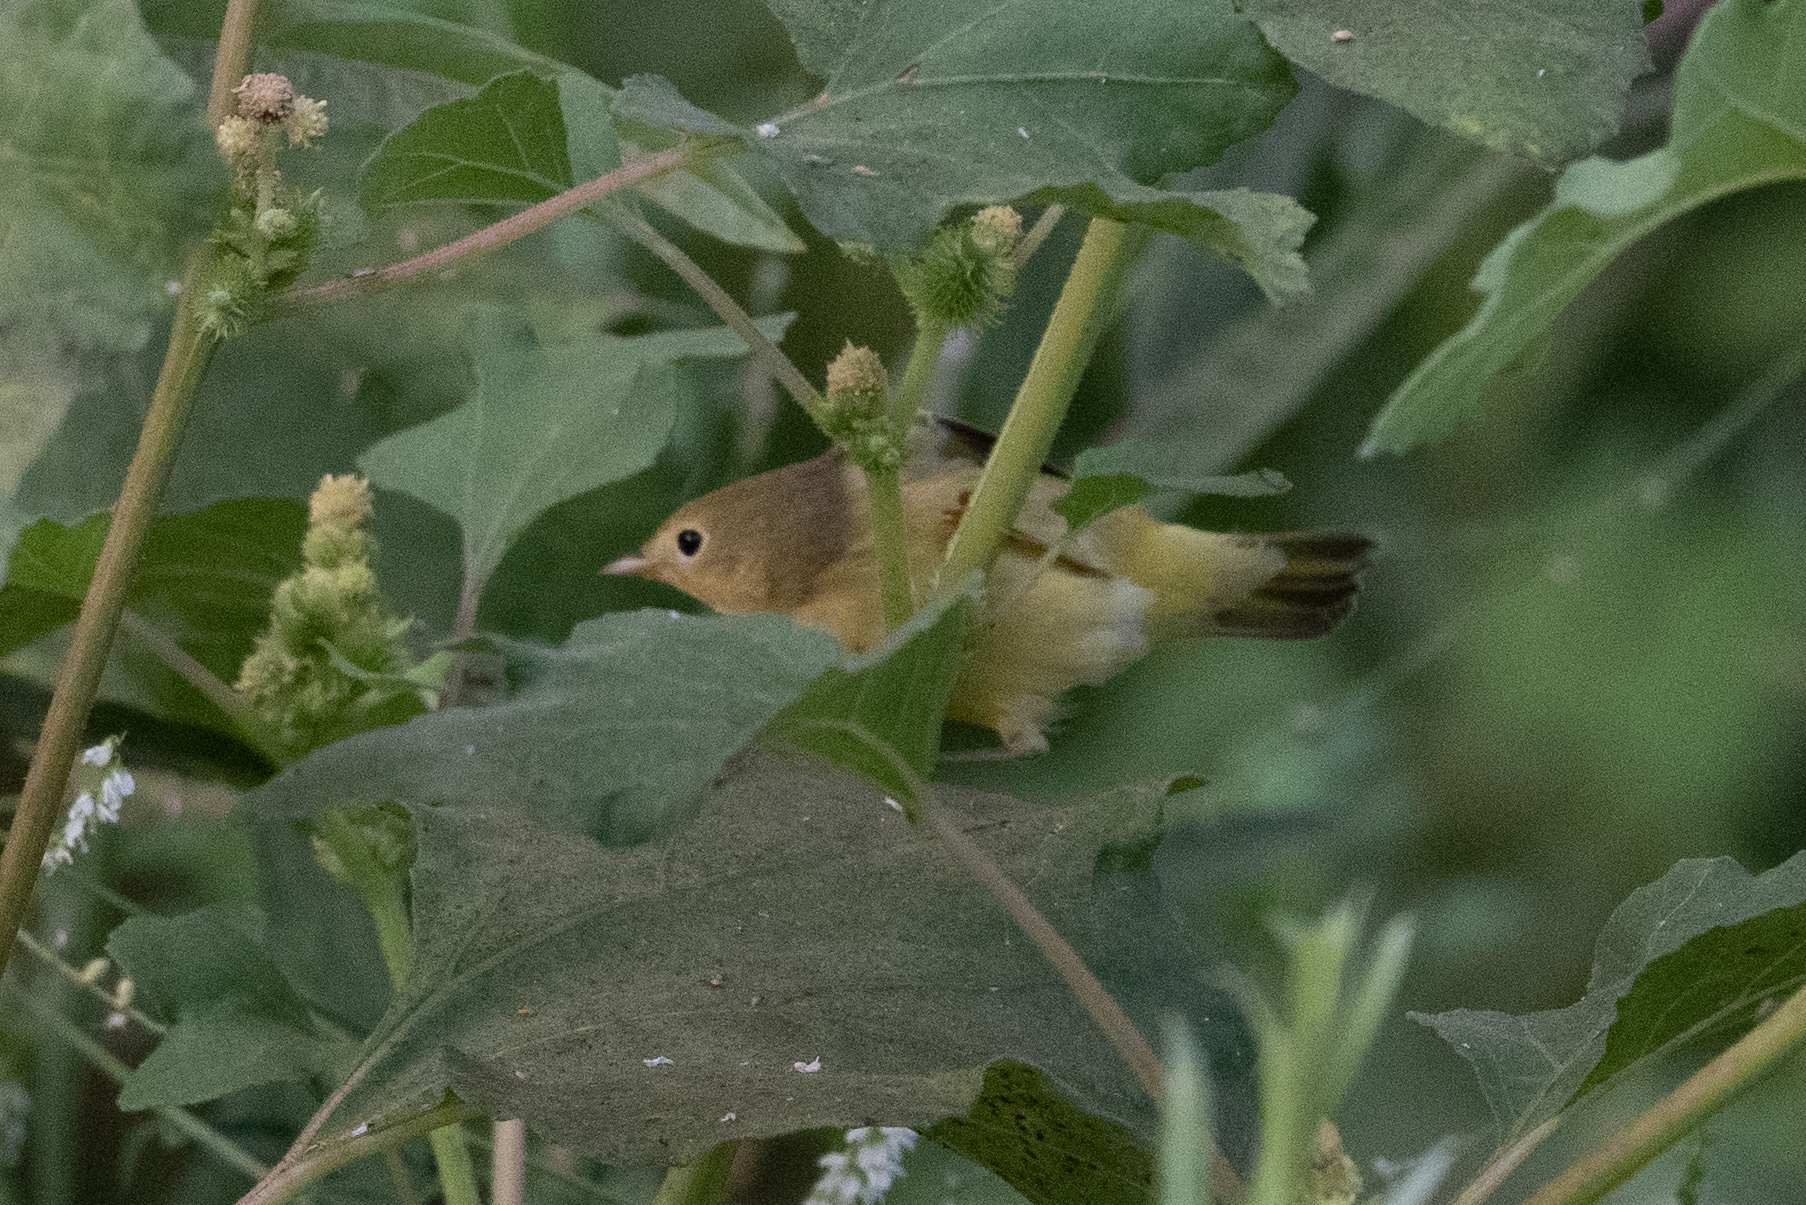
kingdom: Animalia
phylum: Chordata
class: Aves
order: Passeriformes
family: Parulidae
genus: Setophaga
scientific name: Setophaga petechia
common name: Yellow warbler
